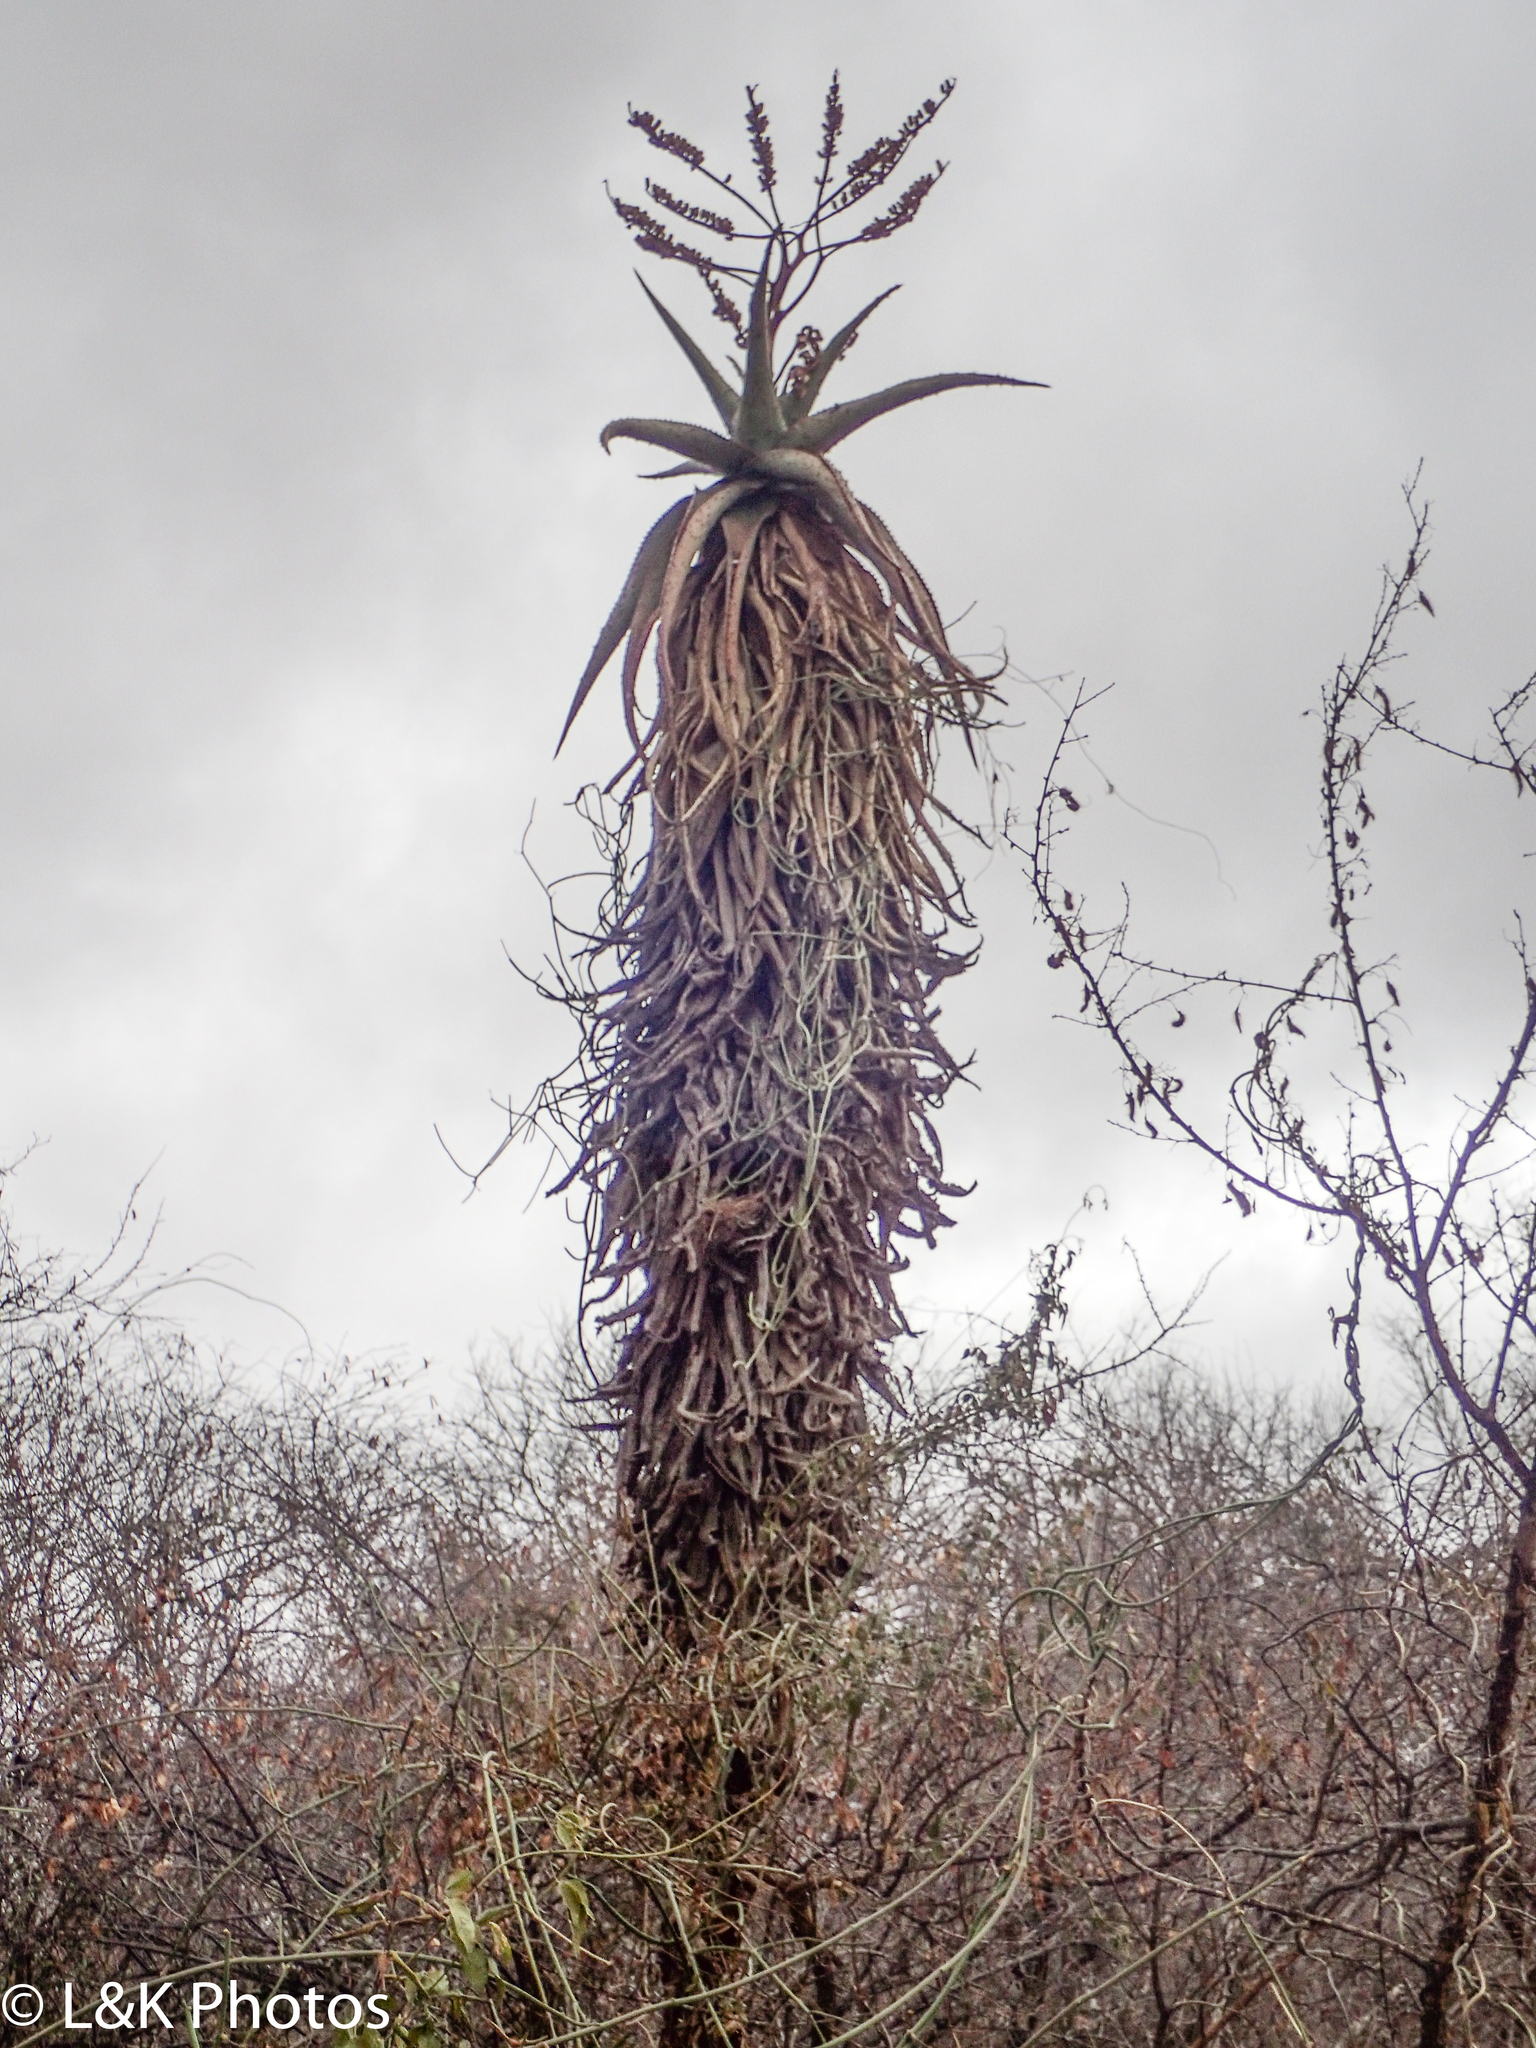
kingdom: Plantae
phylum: Tracheophyta
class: Liliopsida
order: Asparagales
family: Asphodelaceae
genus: Aloe
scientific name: Aloe marlothii
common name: Flat-flowered aloe
